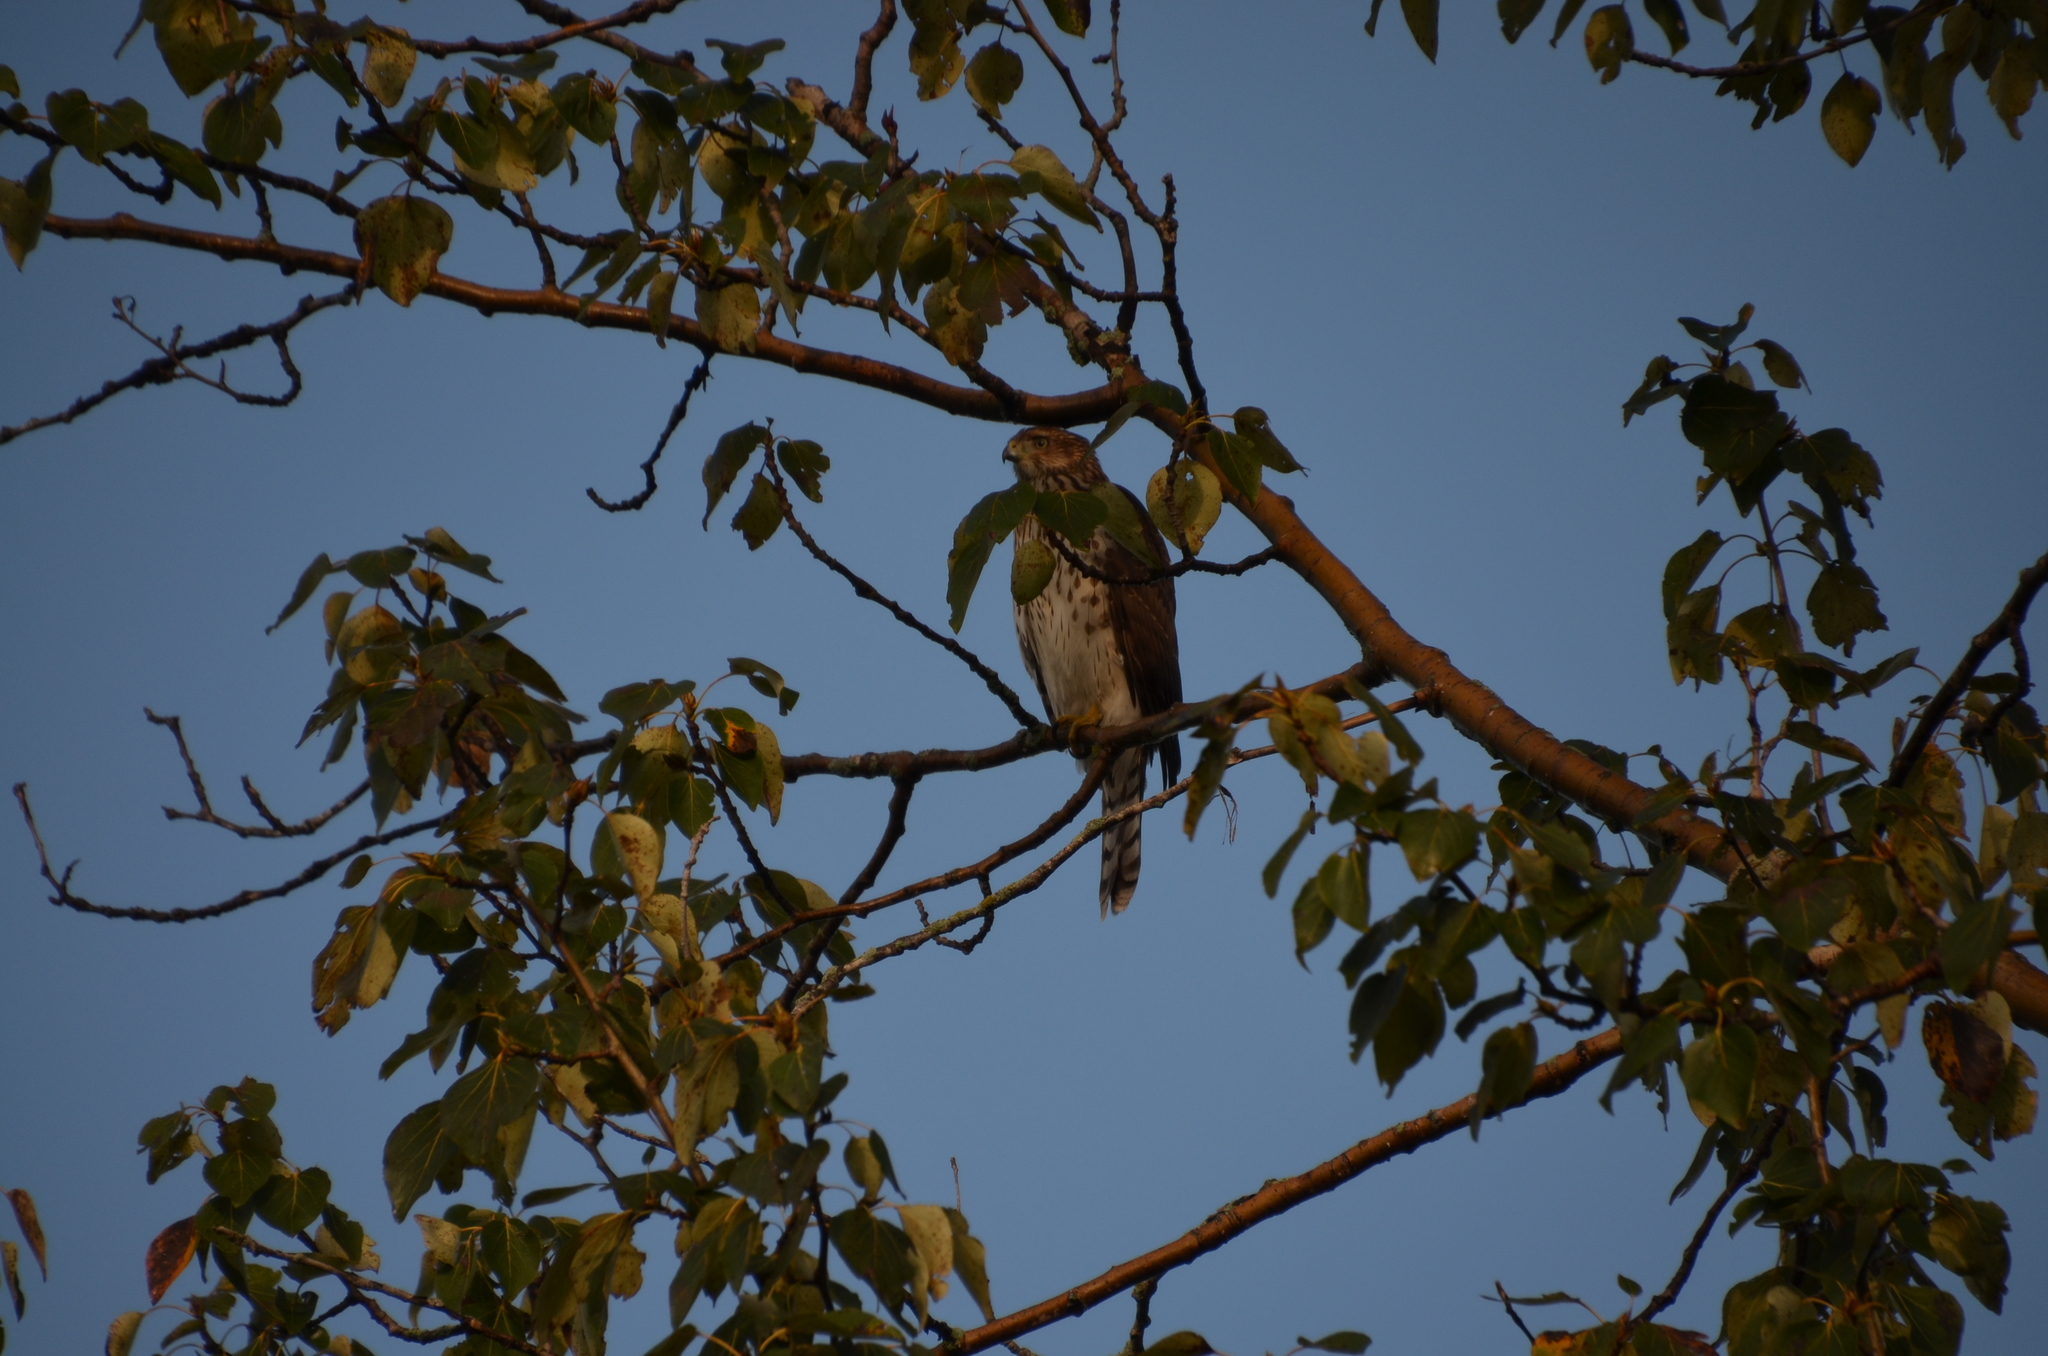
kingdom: Animalia
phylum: Chordata
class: Aves
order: Accipitriformes
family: Accipitridae
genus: Accipiter
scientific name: Accipiter cooperii
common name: Cooper's hawk
